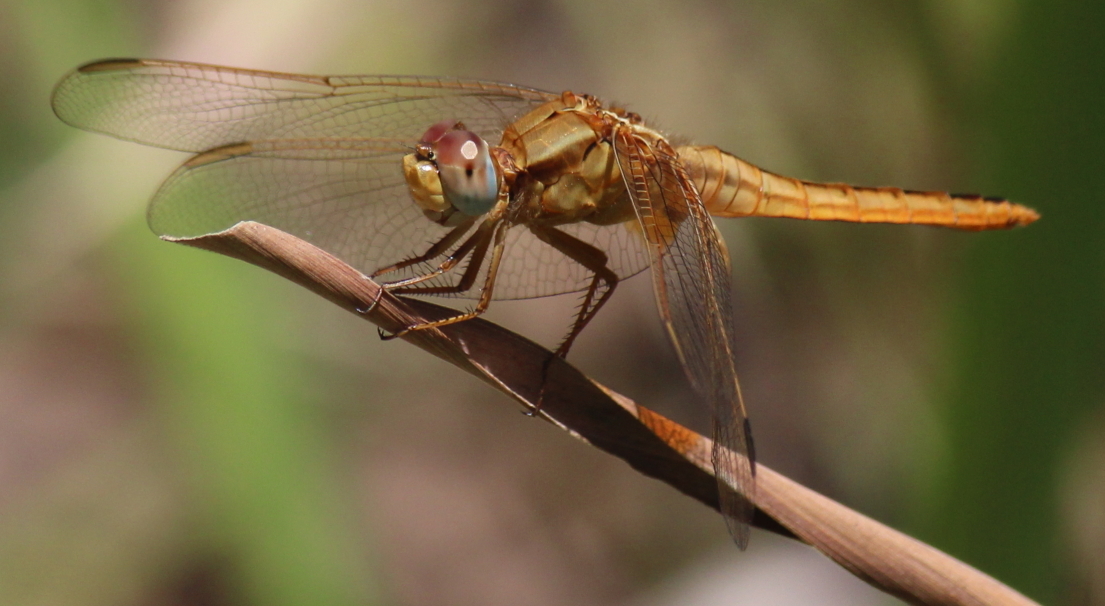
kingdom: Animalia
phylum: Arthropoda
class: Insecta
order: Odonata
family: Libellulidae
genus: Crocothemis
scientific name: Crocothemis erythraea
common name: Scarlet dragonfly
